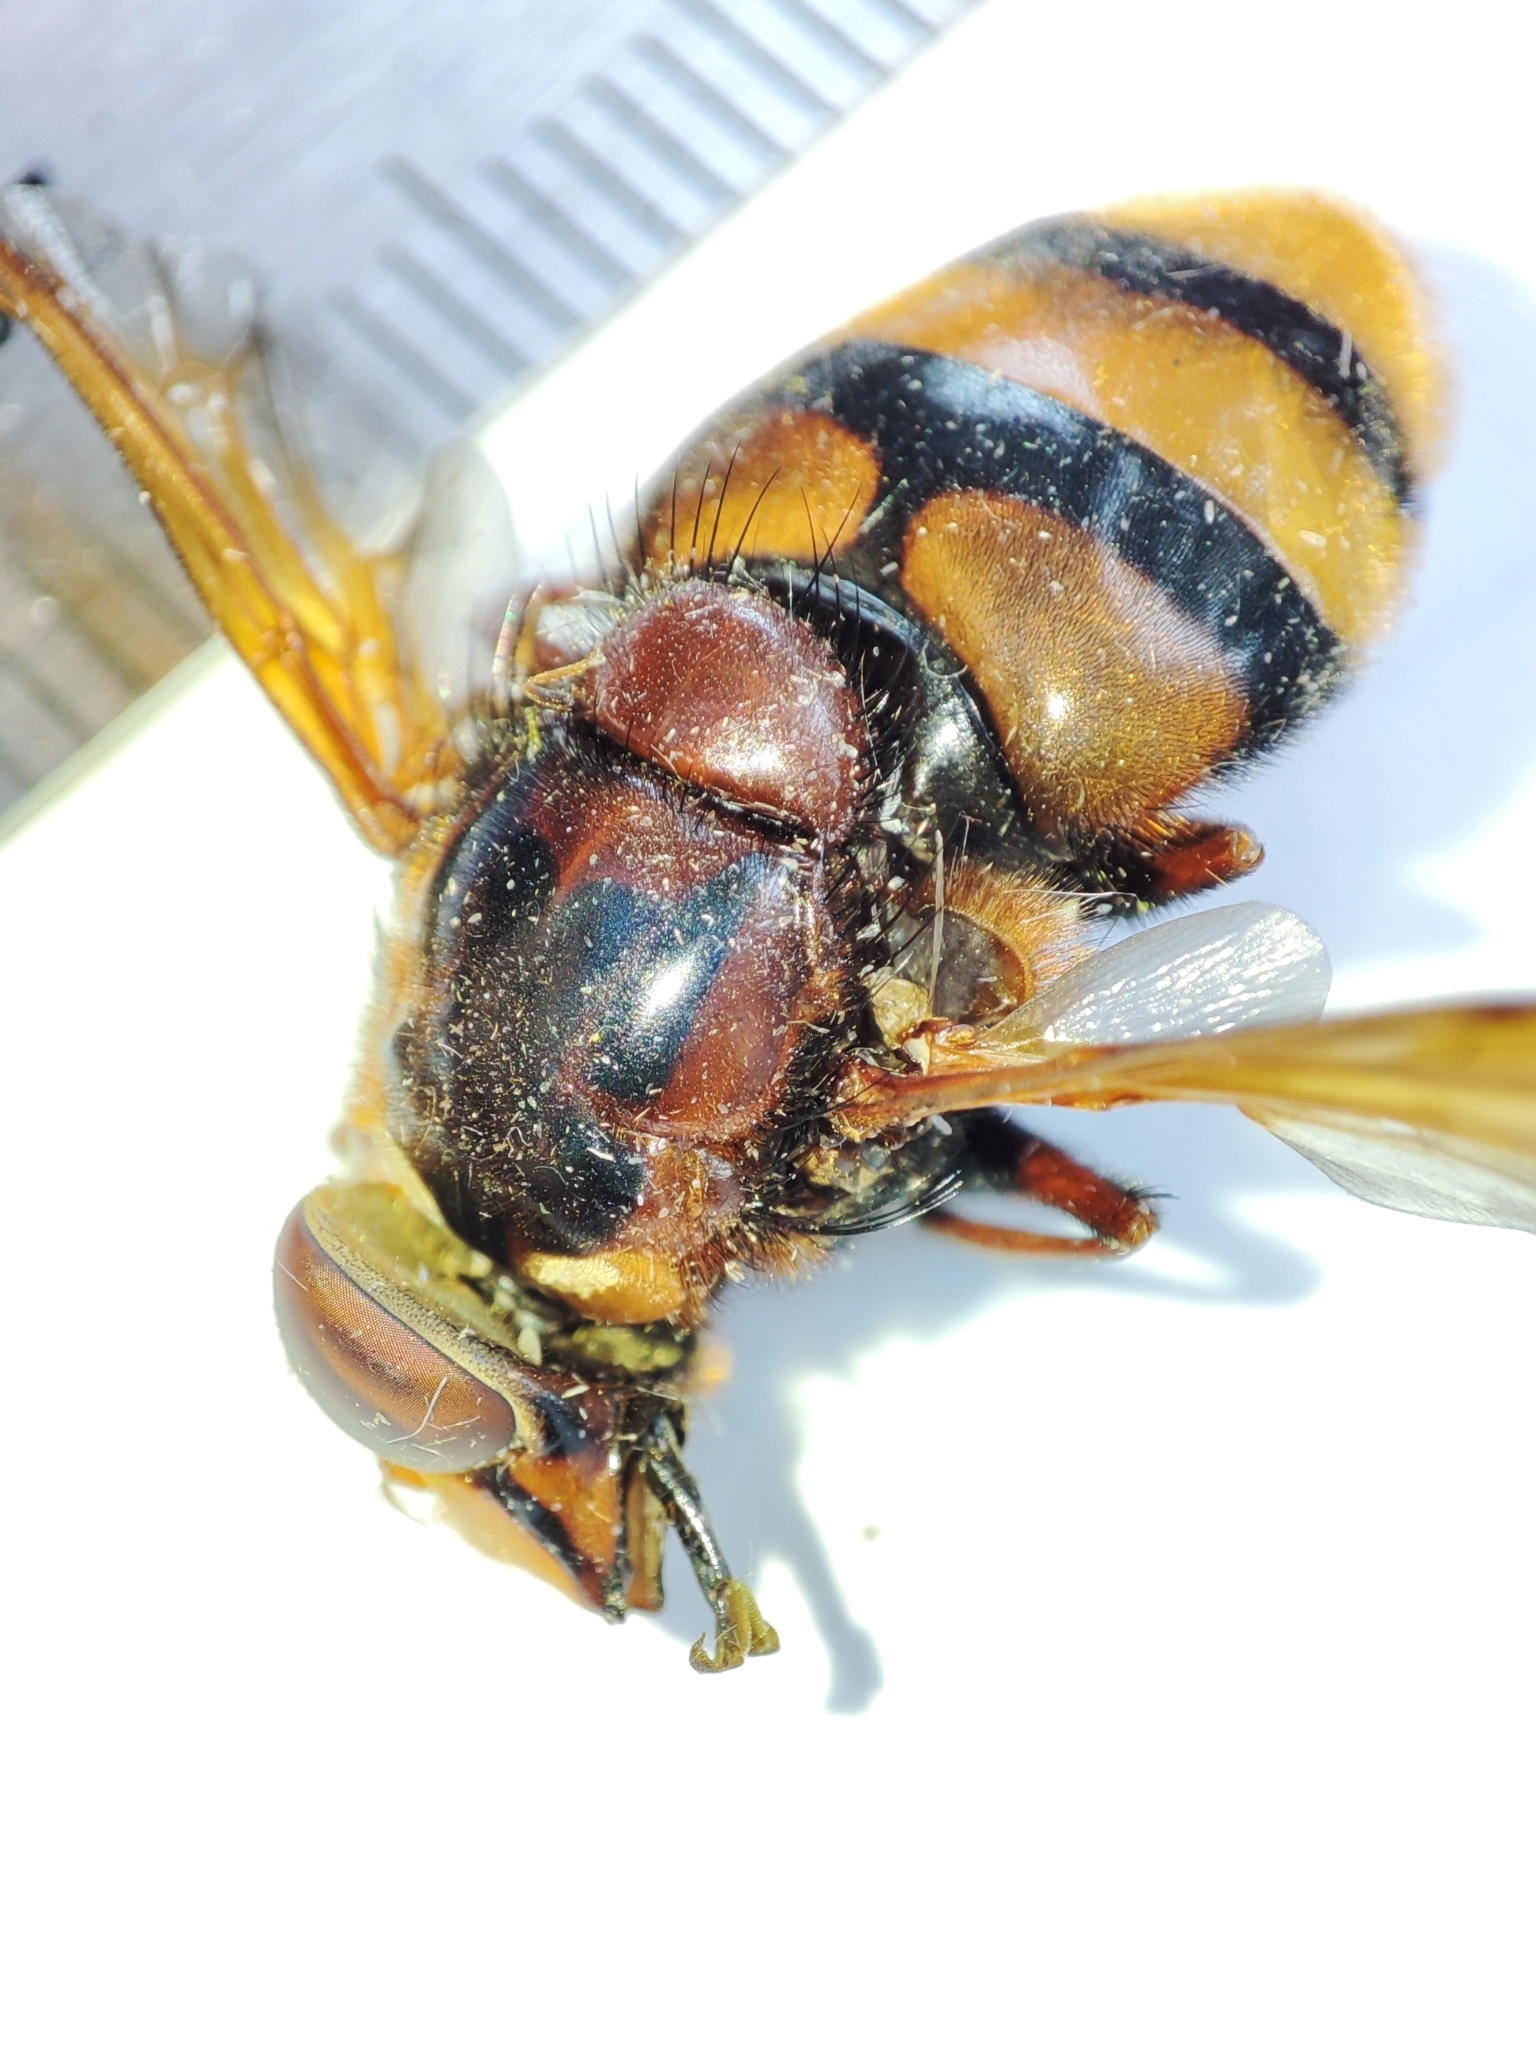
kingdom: Animalia
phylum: Arthropoda
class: Insecta
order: Diptera
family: Syrphidae
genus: Volucella
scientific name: Volucella zonaria
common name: Hornet hoverfly
